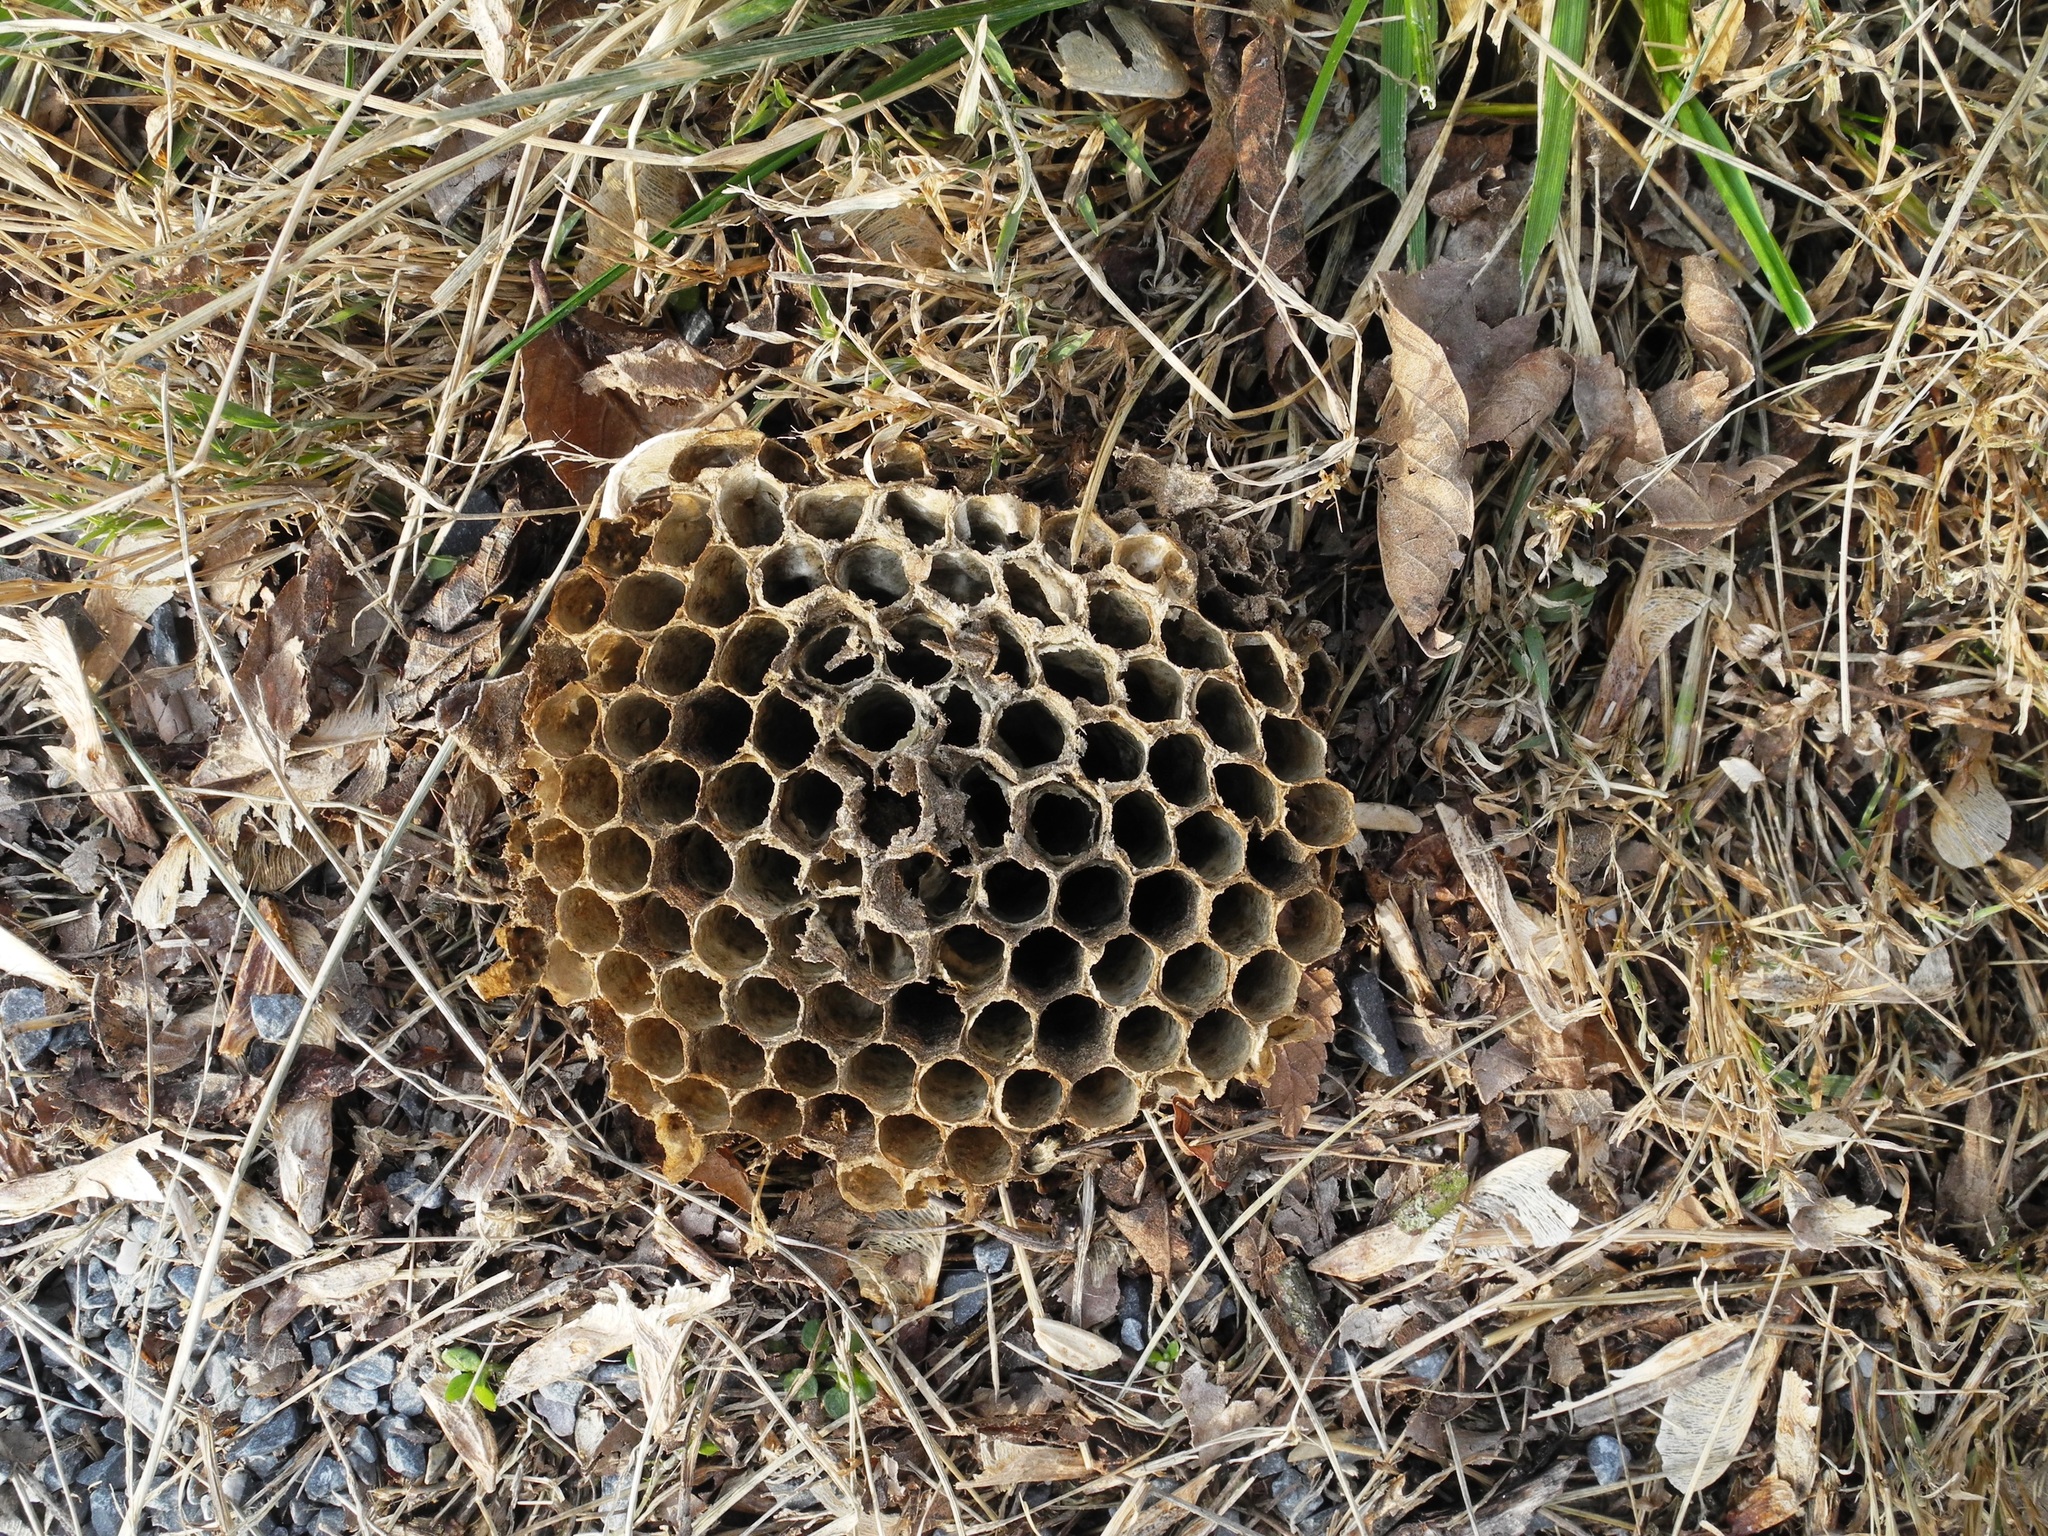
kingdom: Animalia
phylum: Arthropoda
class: Insecta
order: Hymenoptera
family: Vespidae
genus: Dolichovespula
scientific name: Dolichovespula maculata
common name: Bald-faced hornet
